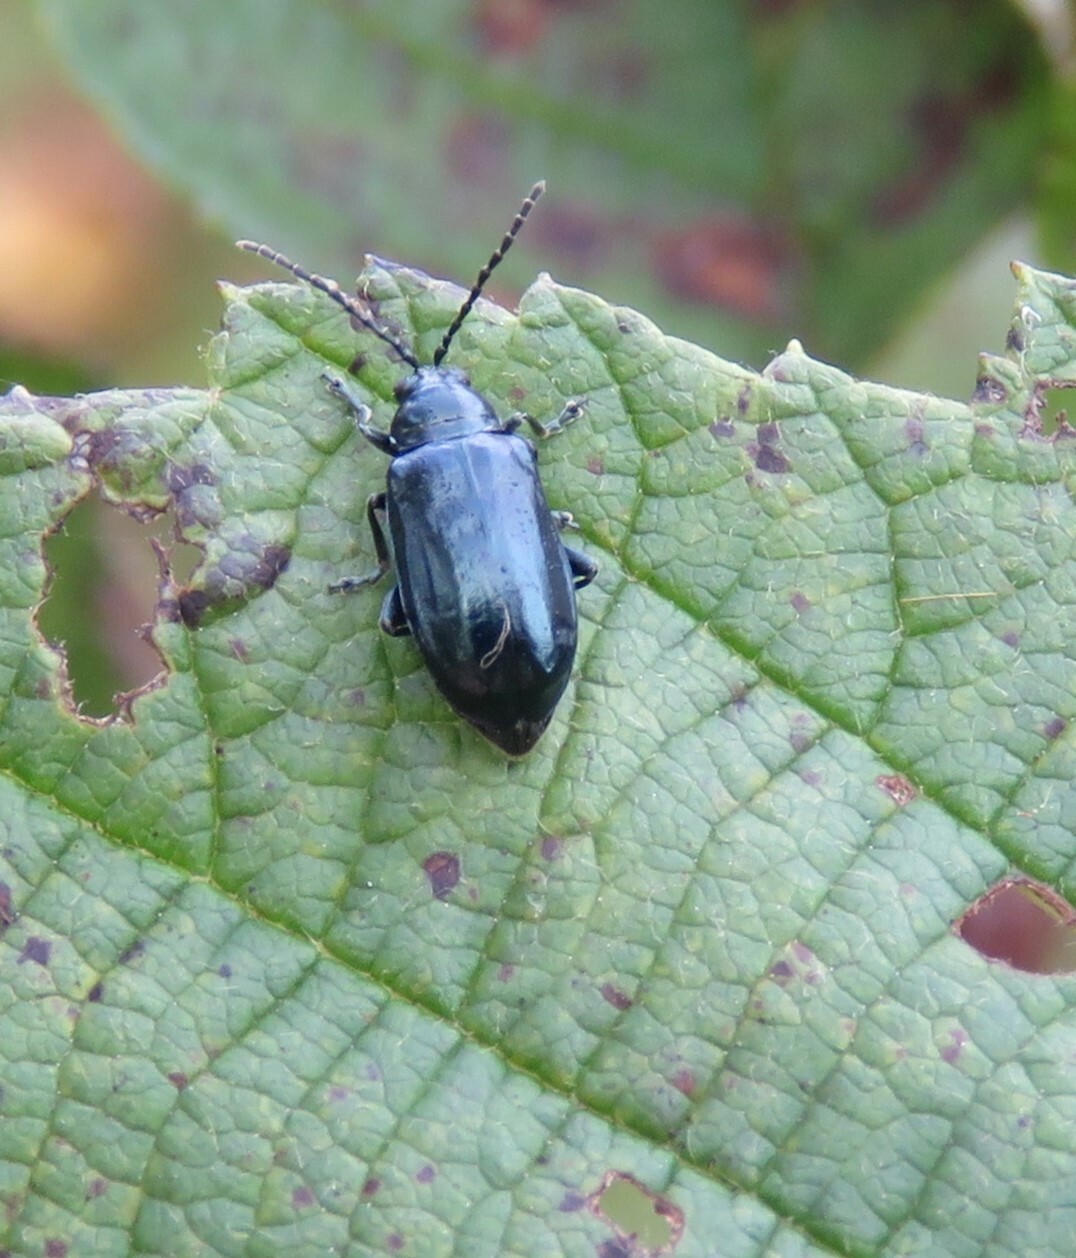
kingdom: Animalia
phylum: Arthropoda
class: Insecta
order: Coleoptera
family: Chrysomelidae
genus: Altica
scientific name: Altica ambiens
